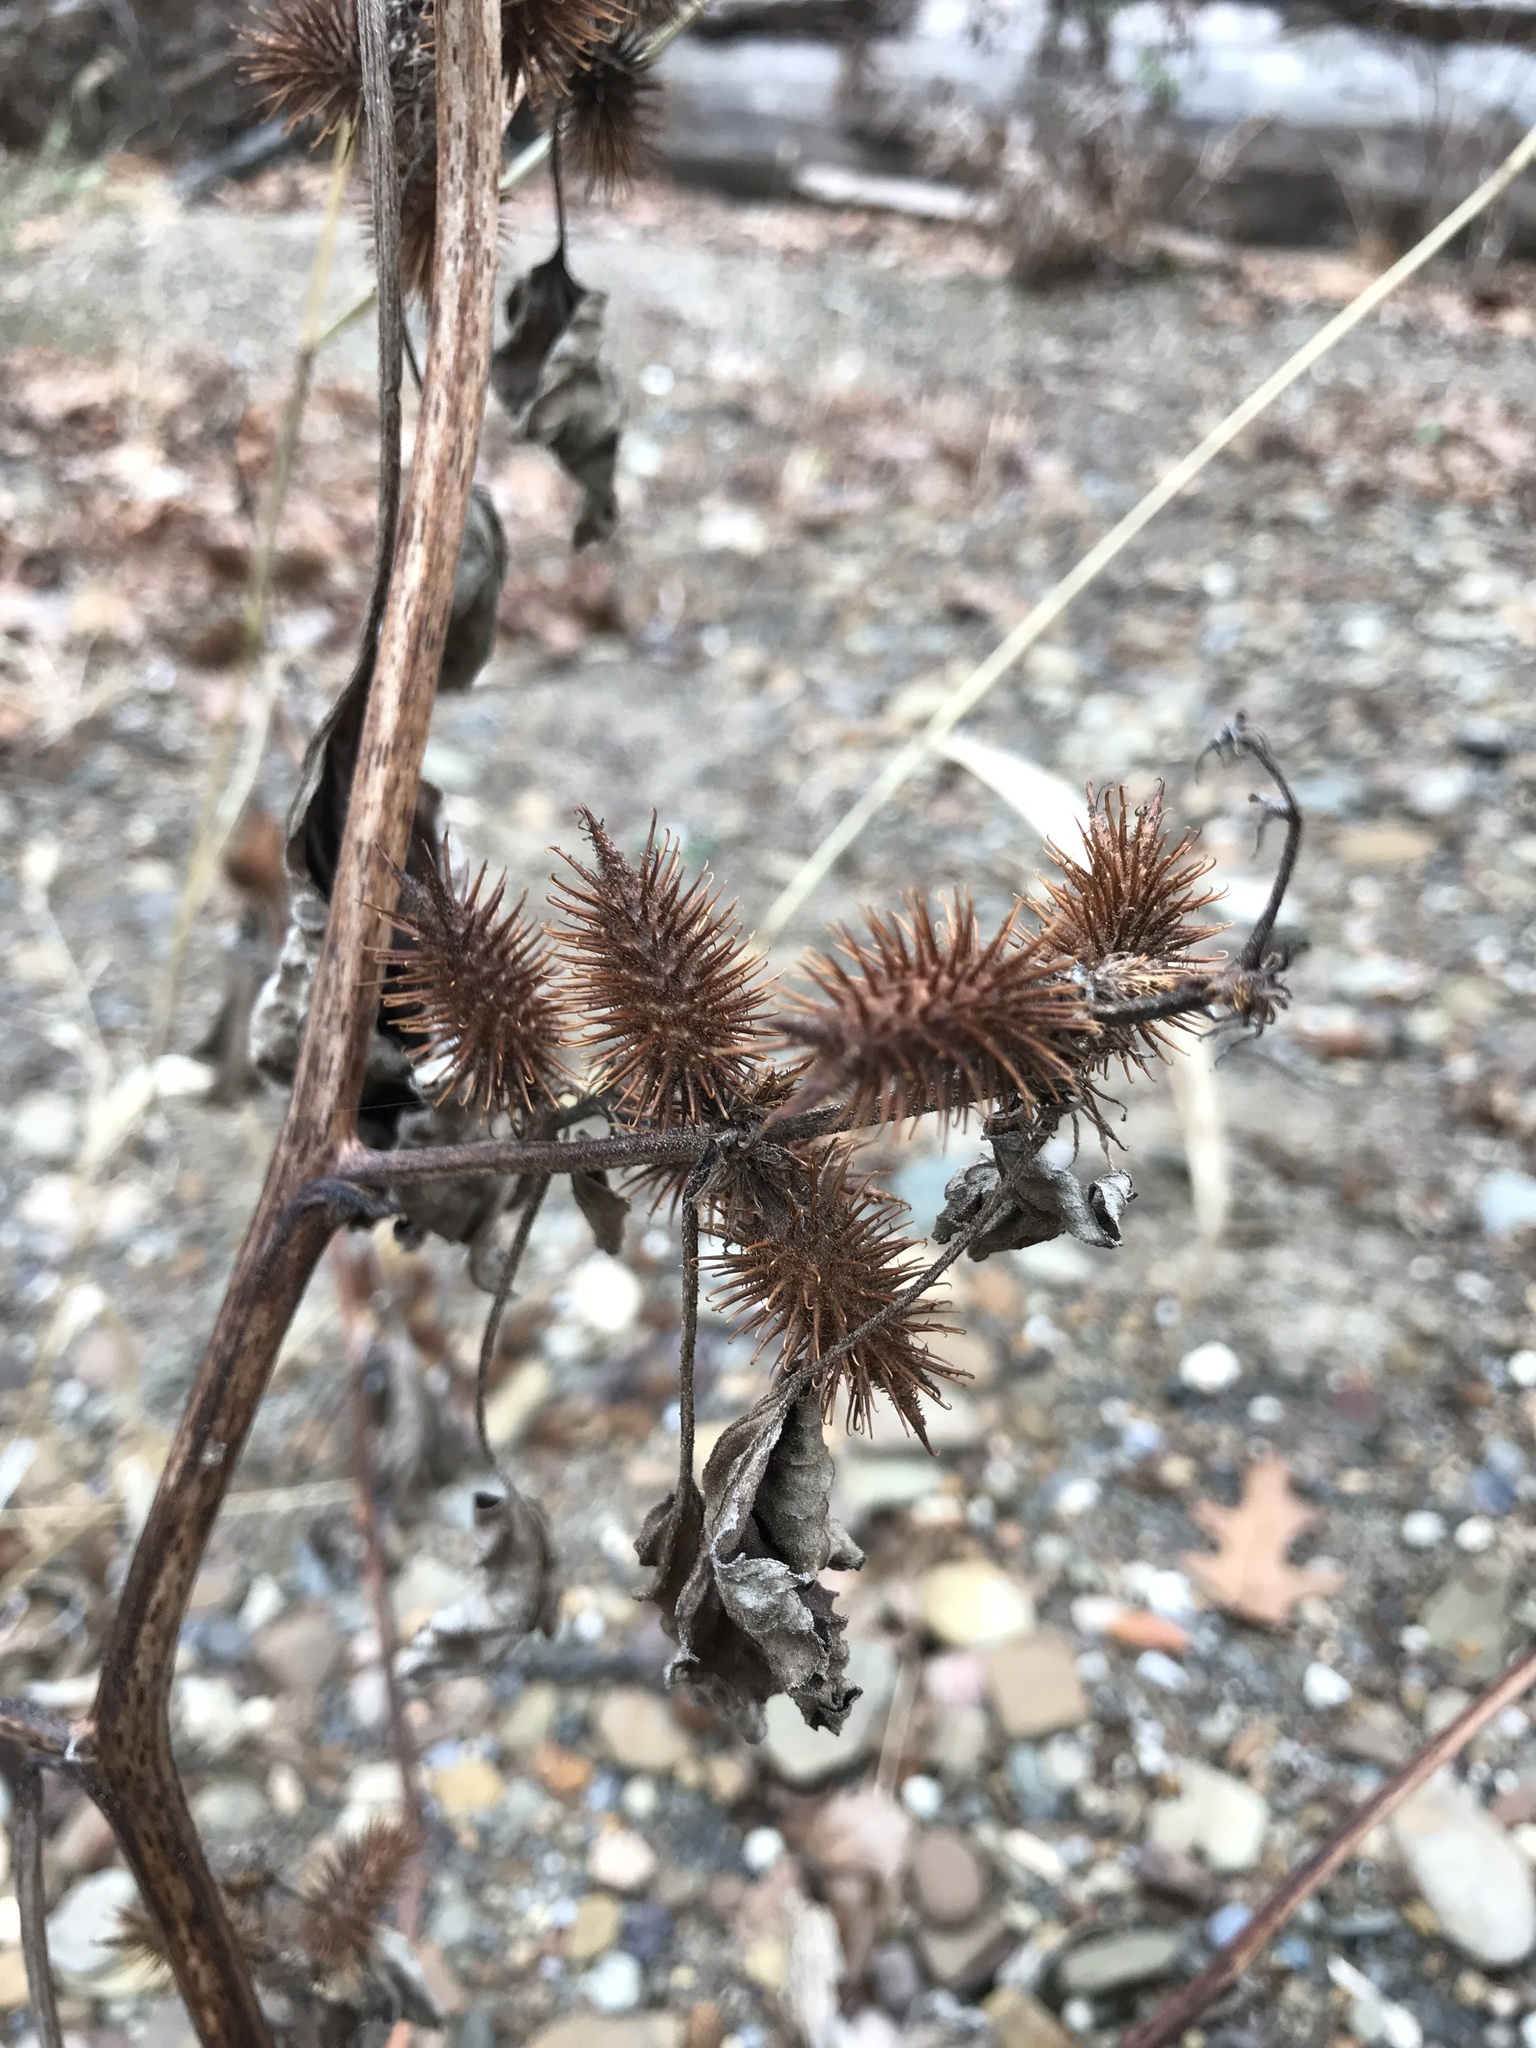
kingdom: Plantae
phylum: Tracheophyta
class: Magnoliopsida
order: Asterales
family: Asteraceae
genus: Xanthium
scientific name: Xanthium strumarium
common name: Rough cocklebur
